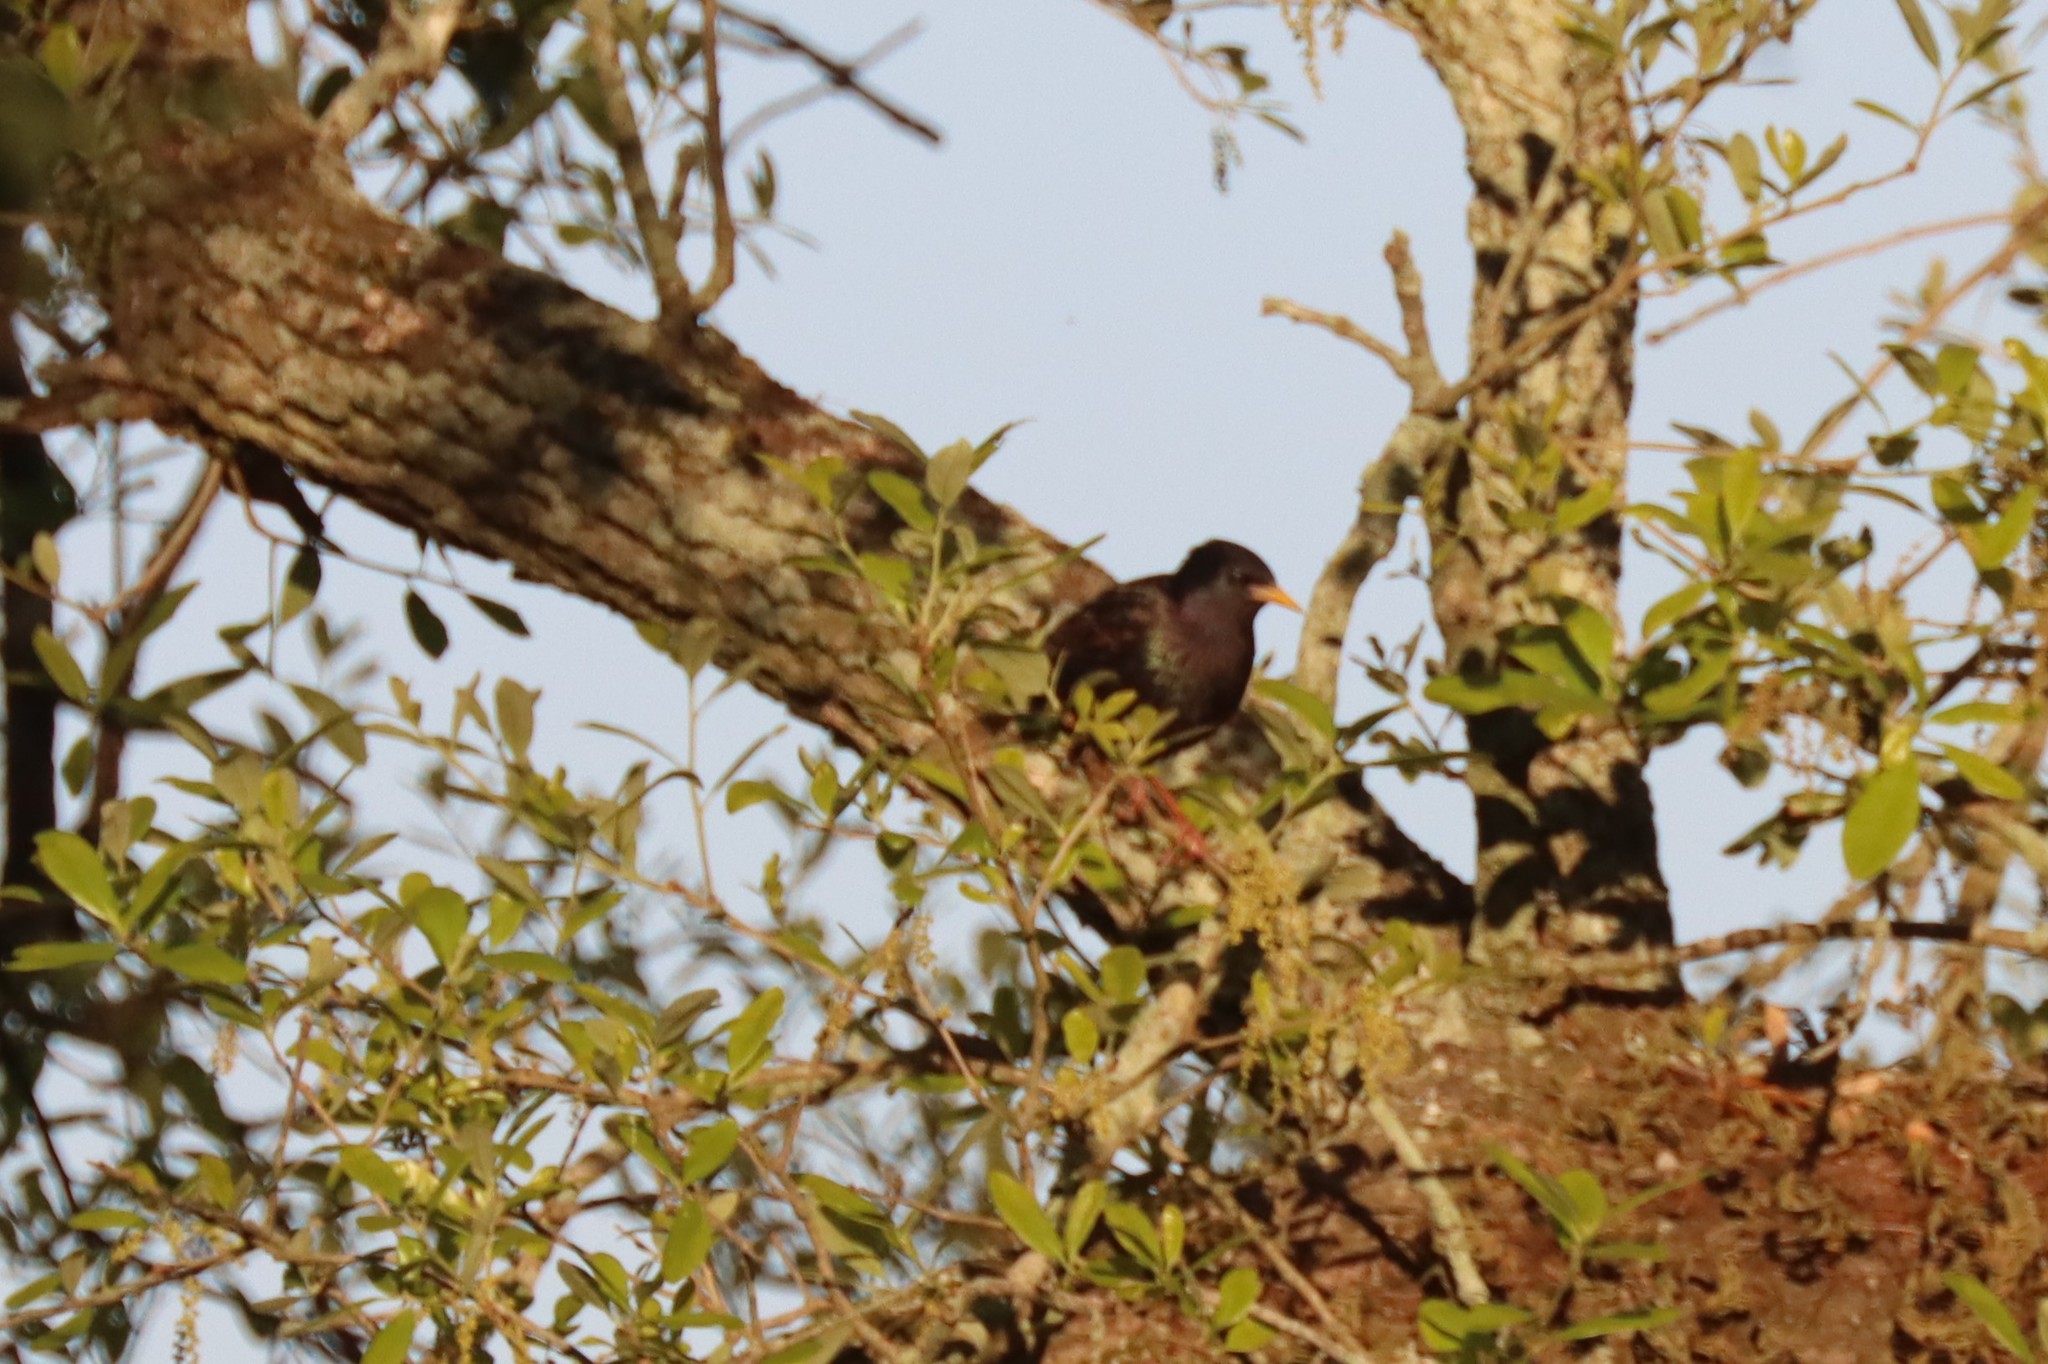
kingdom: Animalia
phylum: Chordata
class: Aves
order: Passeriformes
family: Sturnidae
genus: Sturnus
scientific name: Sturnus vulgaris
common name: Common starling
